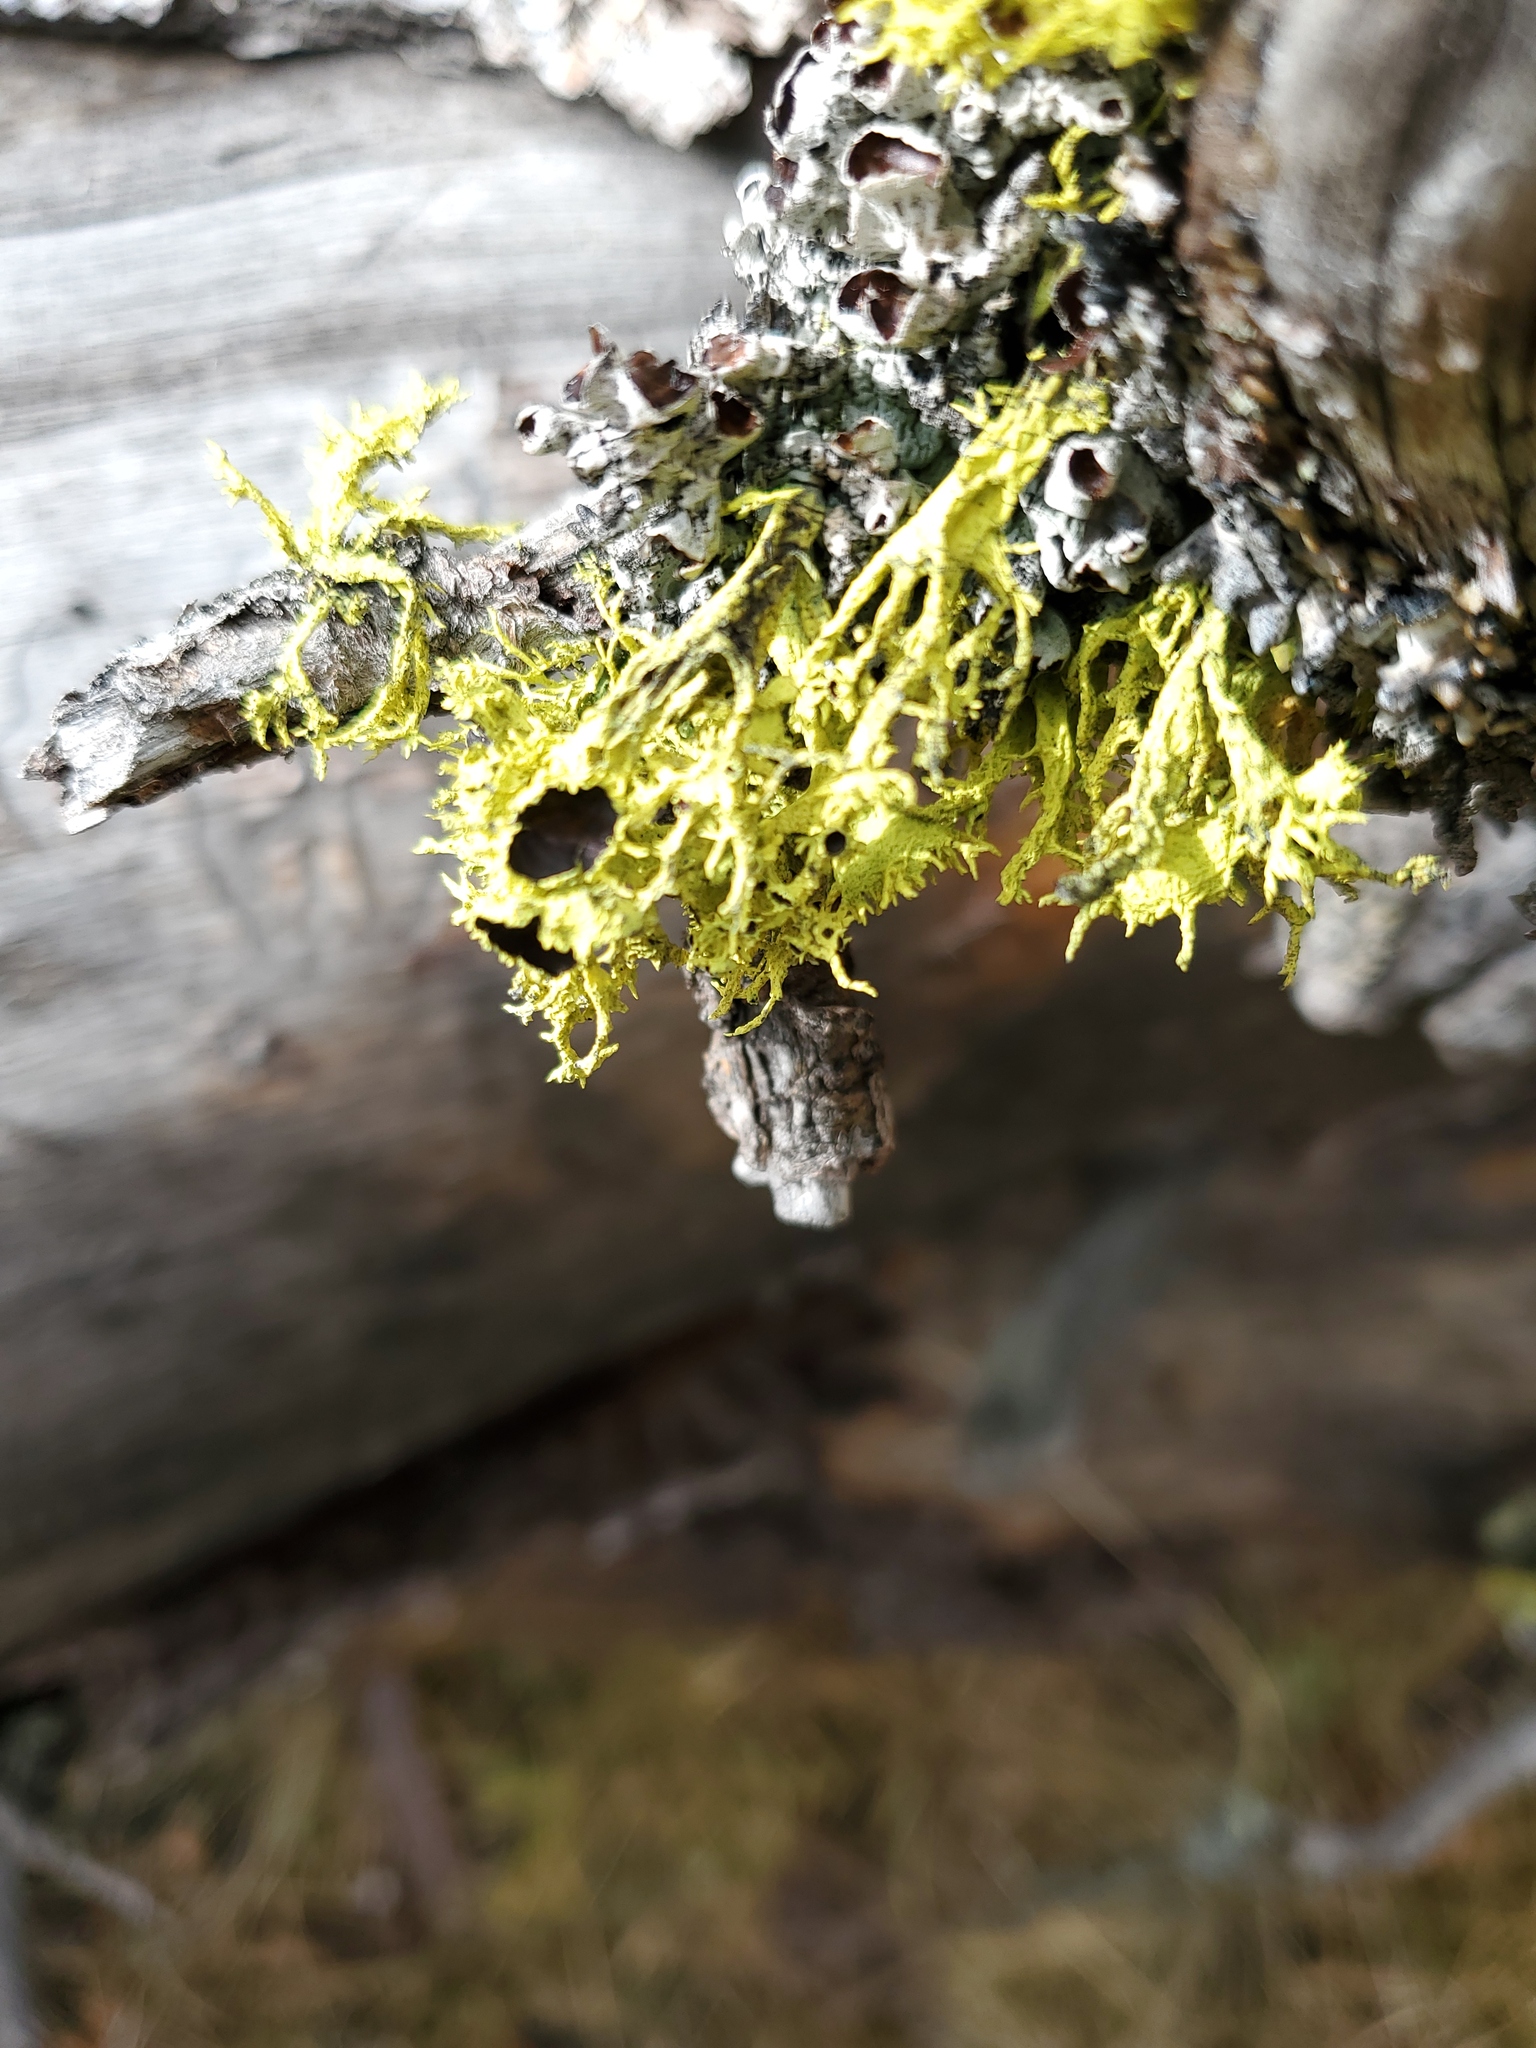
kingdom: Fungi
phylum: Ascomycota
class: Lecanoromycetes
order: Lecanorales
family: Parmeliaceae
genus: Letharia
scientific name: Letharia columbiana
